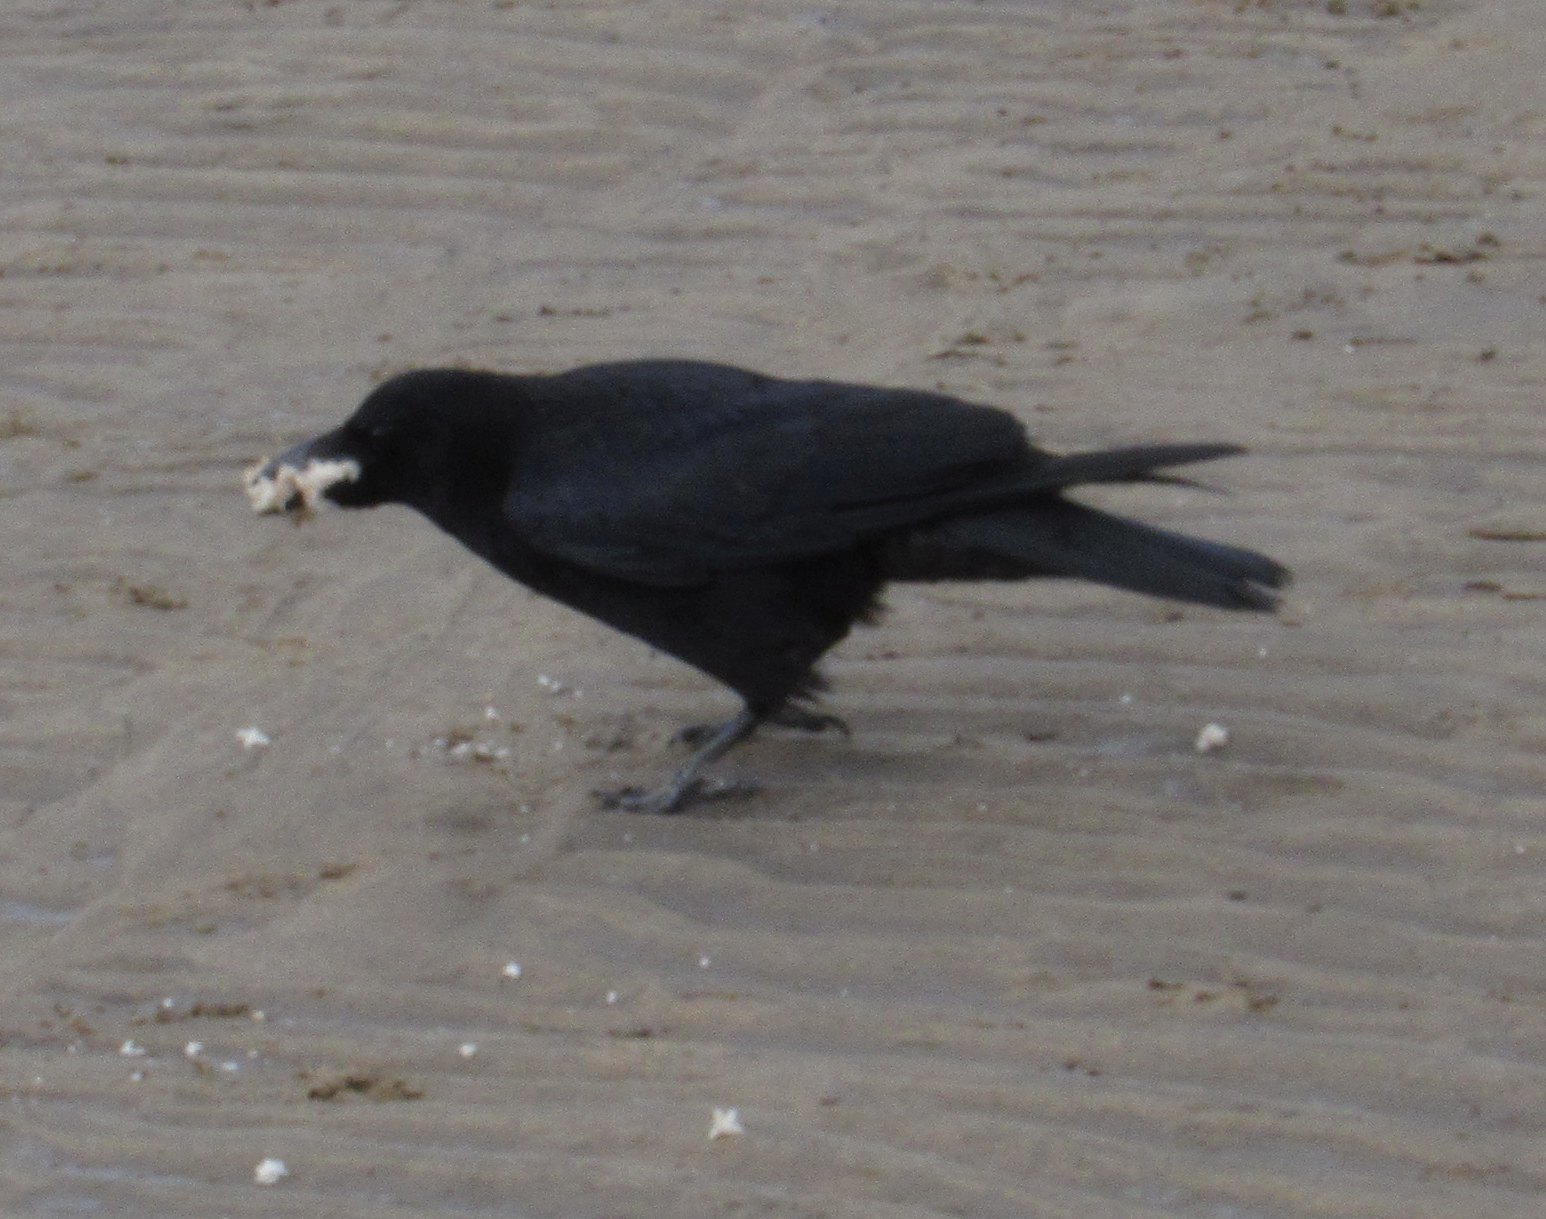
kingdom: Animalia
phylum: Chordata
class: Aves
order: Passeriformes
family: Corvidae
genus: Corvus
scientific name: Corvus corone
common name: Carrion crow
